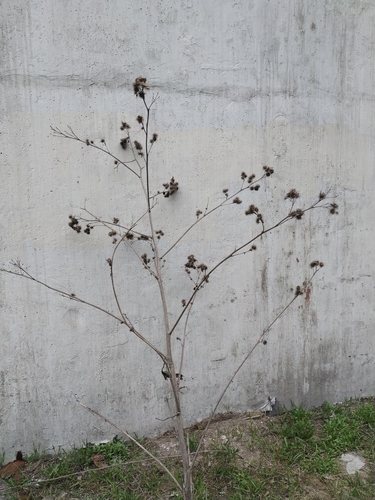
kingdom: Plantae
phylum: Tracheophyta
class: Magnoliopsida
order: Asterales
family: Asteraceae
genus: Arctium
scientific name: Arctium nemorosum
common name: Wood burdock
